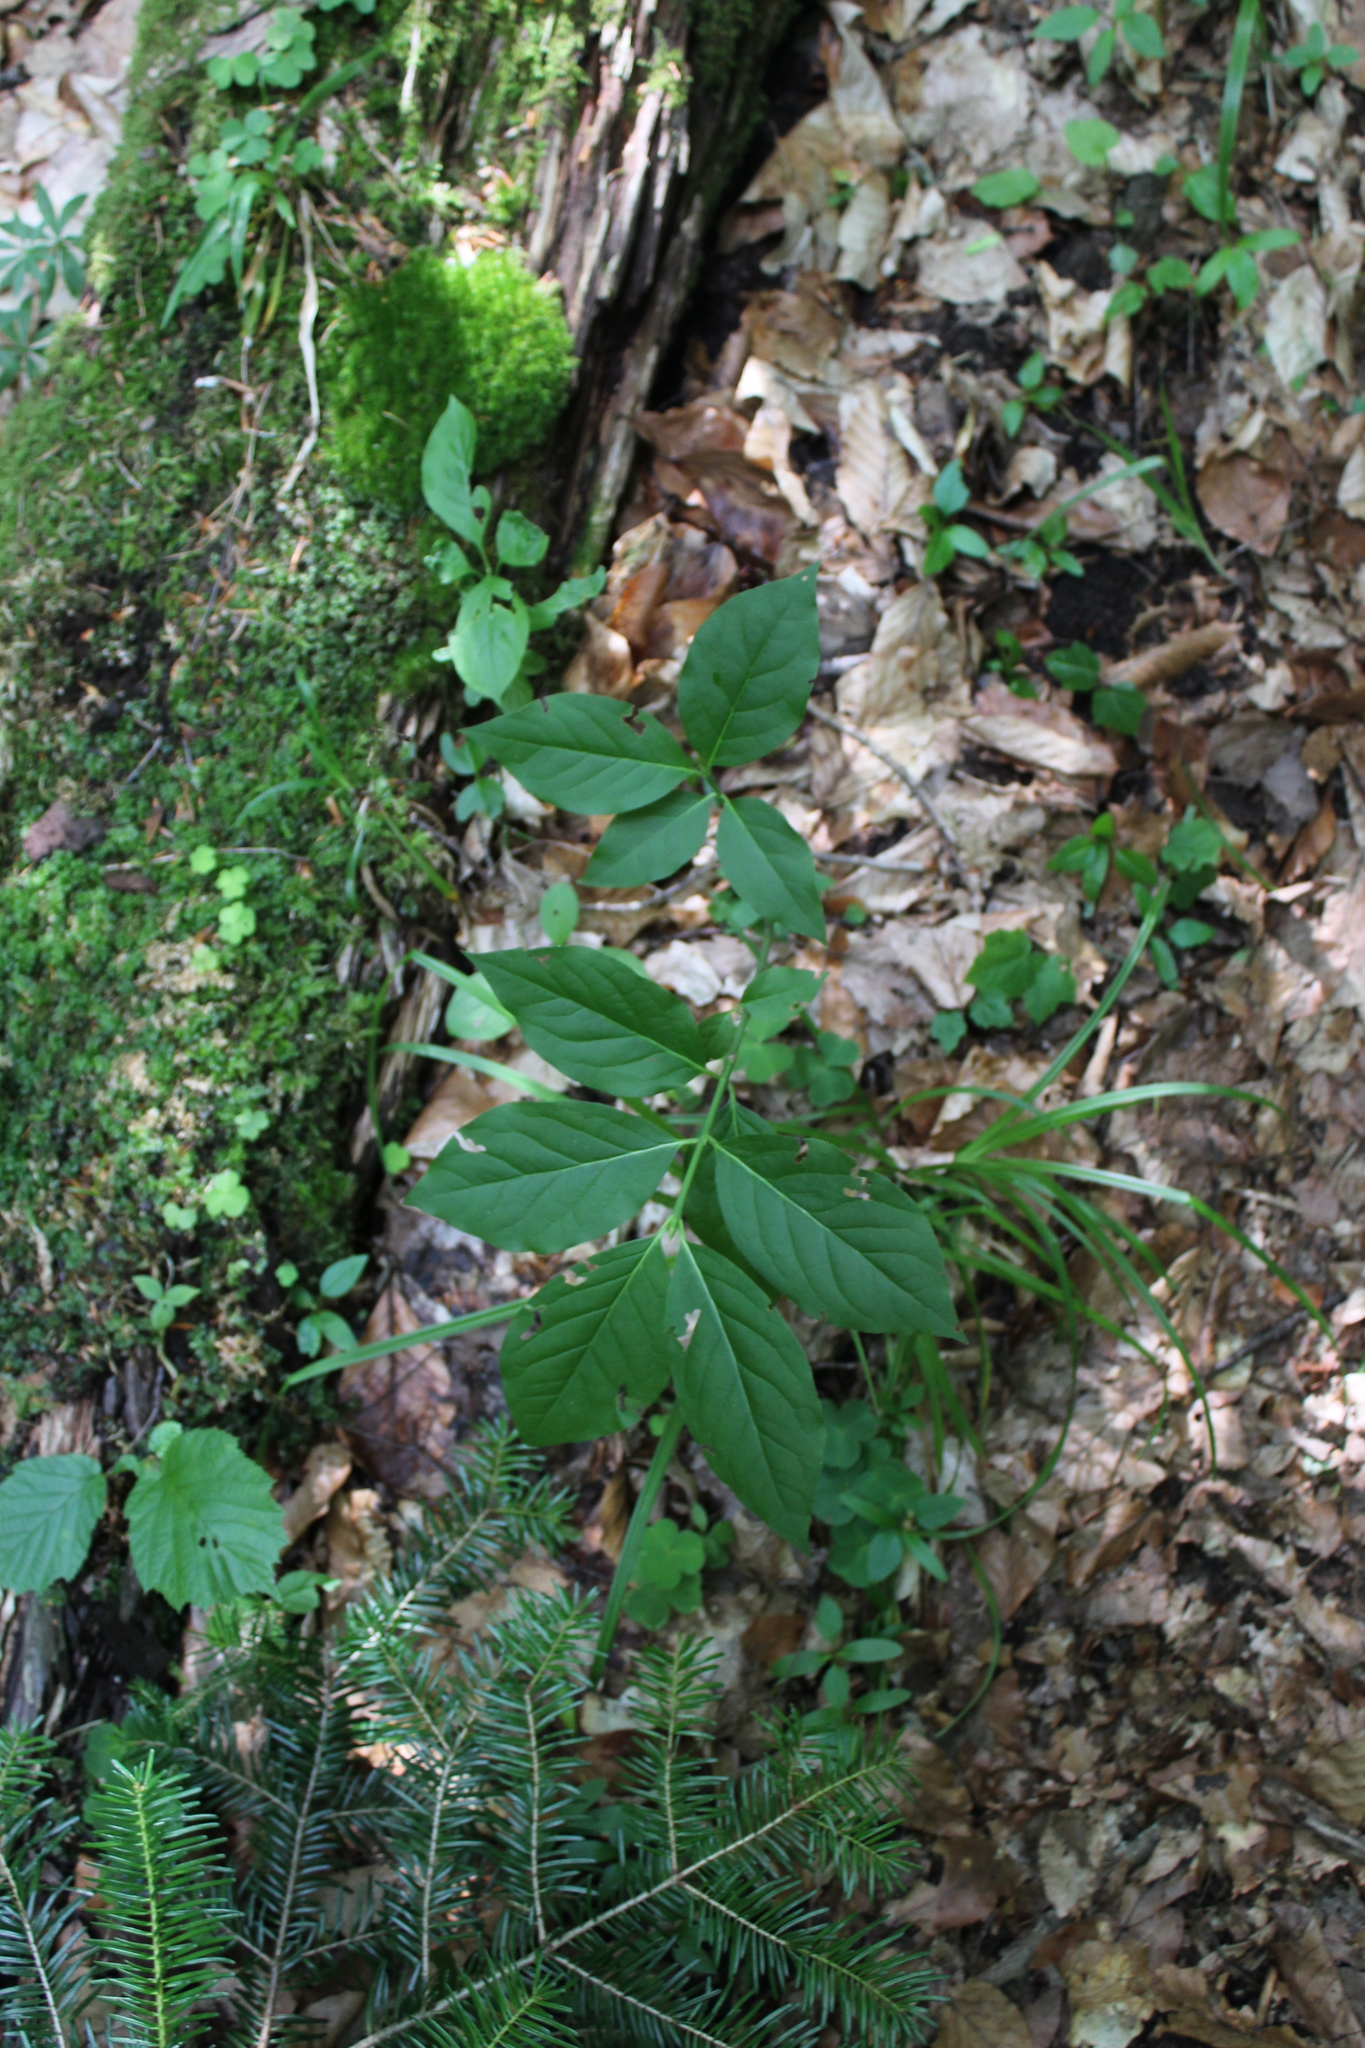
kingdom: Plantae
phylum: Tracheophyta
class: Magnoliopsida
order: Celastrales
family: Celastraceae
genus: Euonymus
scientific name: Euonymus europaeus
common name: Spindle
